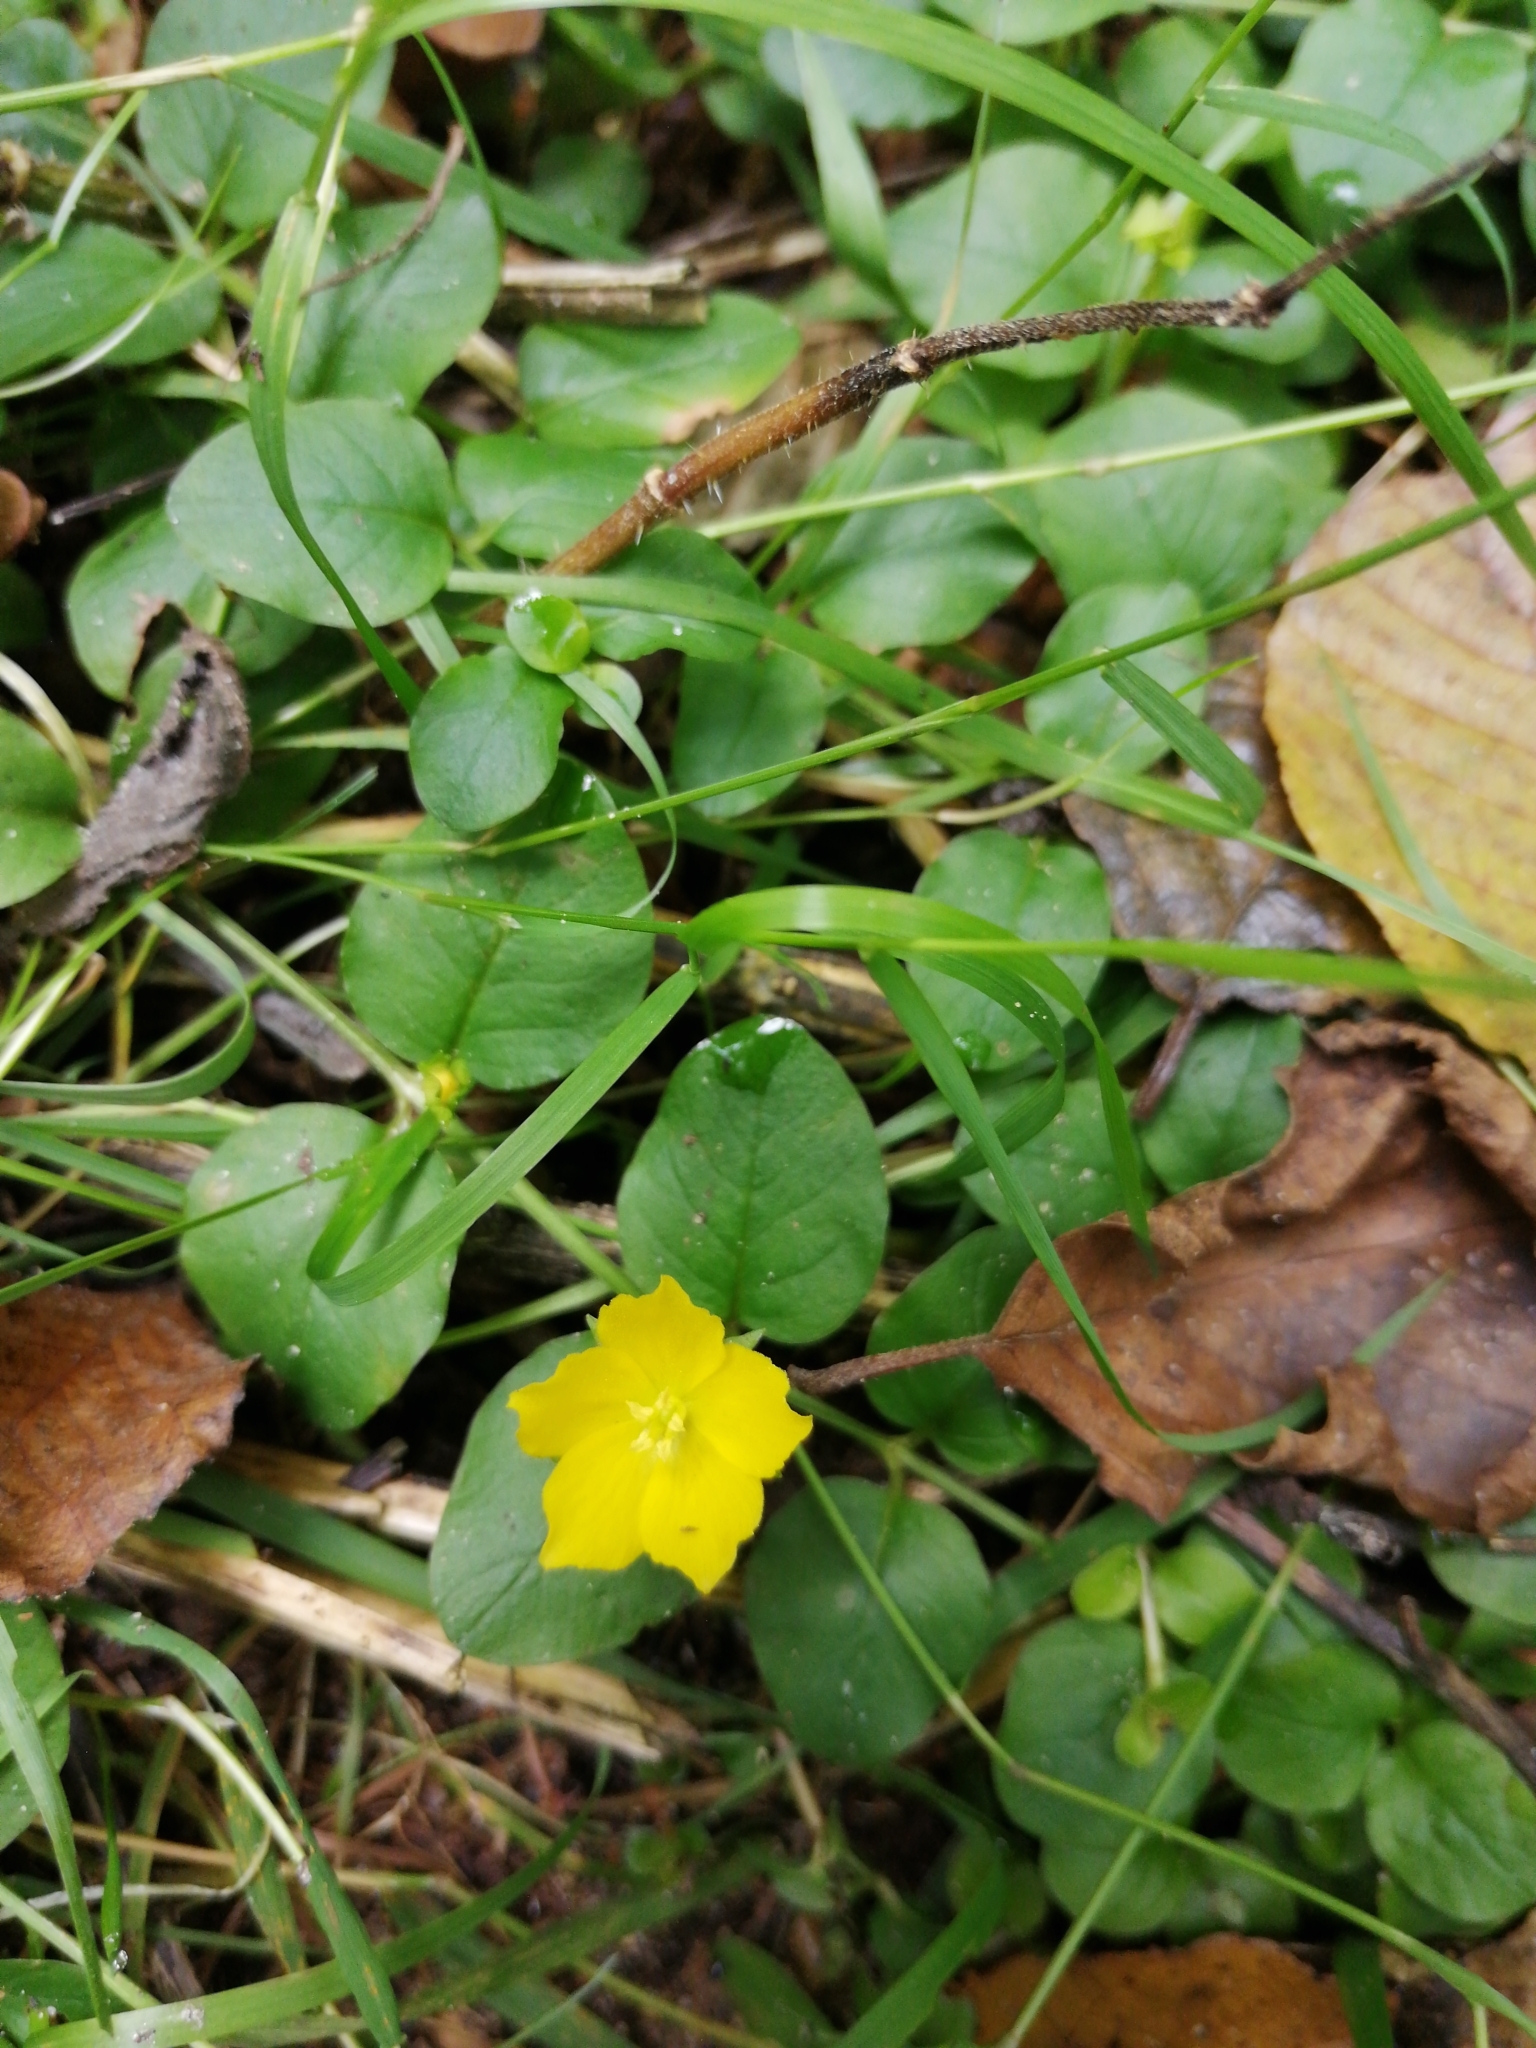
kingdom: Plantae
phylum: Tracheophyta
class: Magnoliopsida
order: Ericales
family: Primulaceae
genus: Lysimachia
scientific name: Lysimachia nummularia
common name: Moneywort
